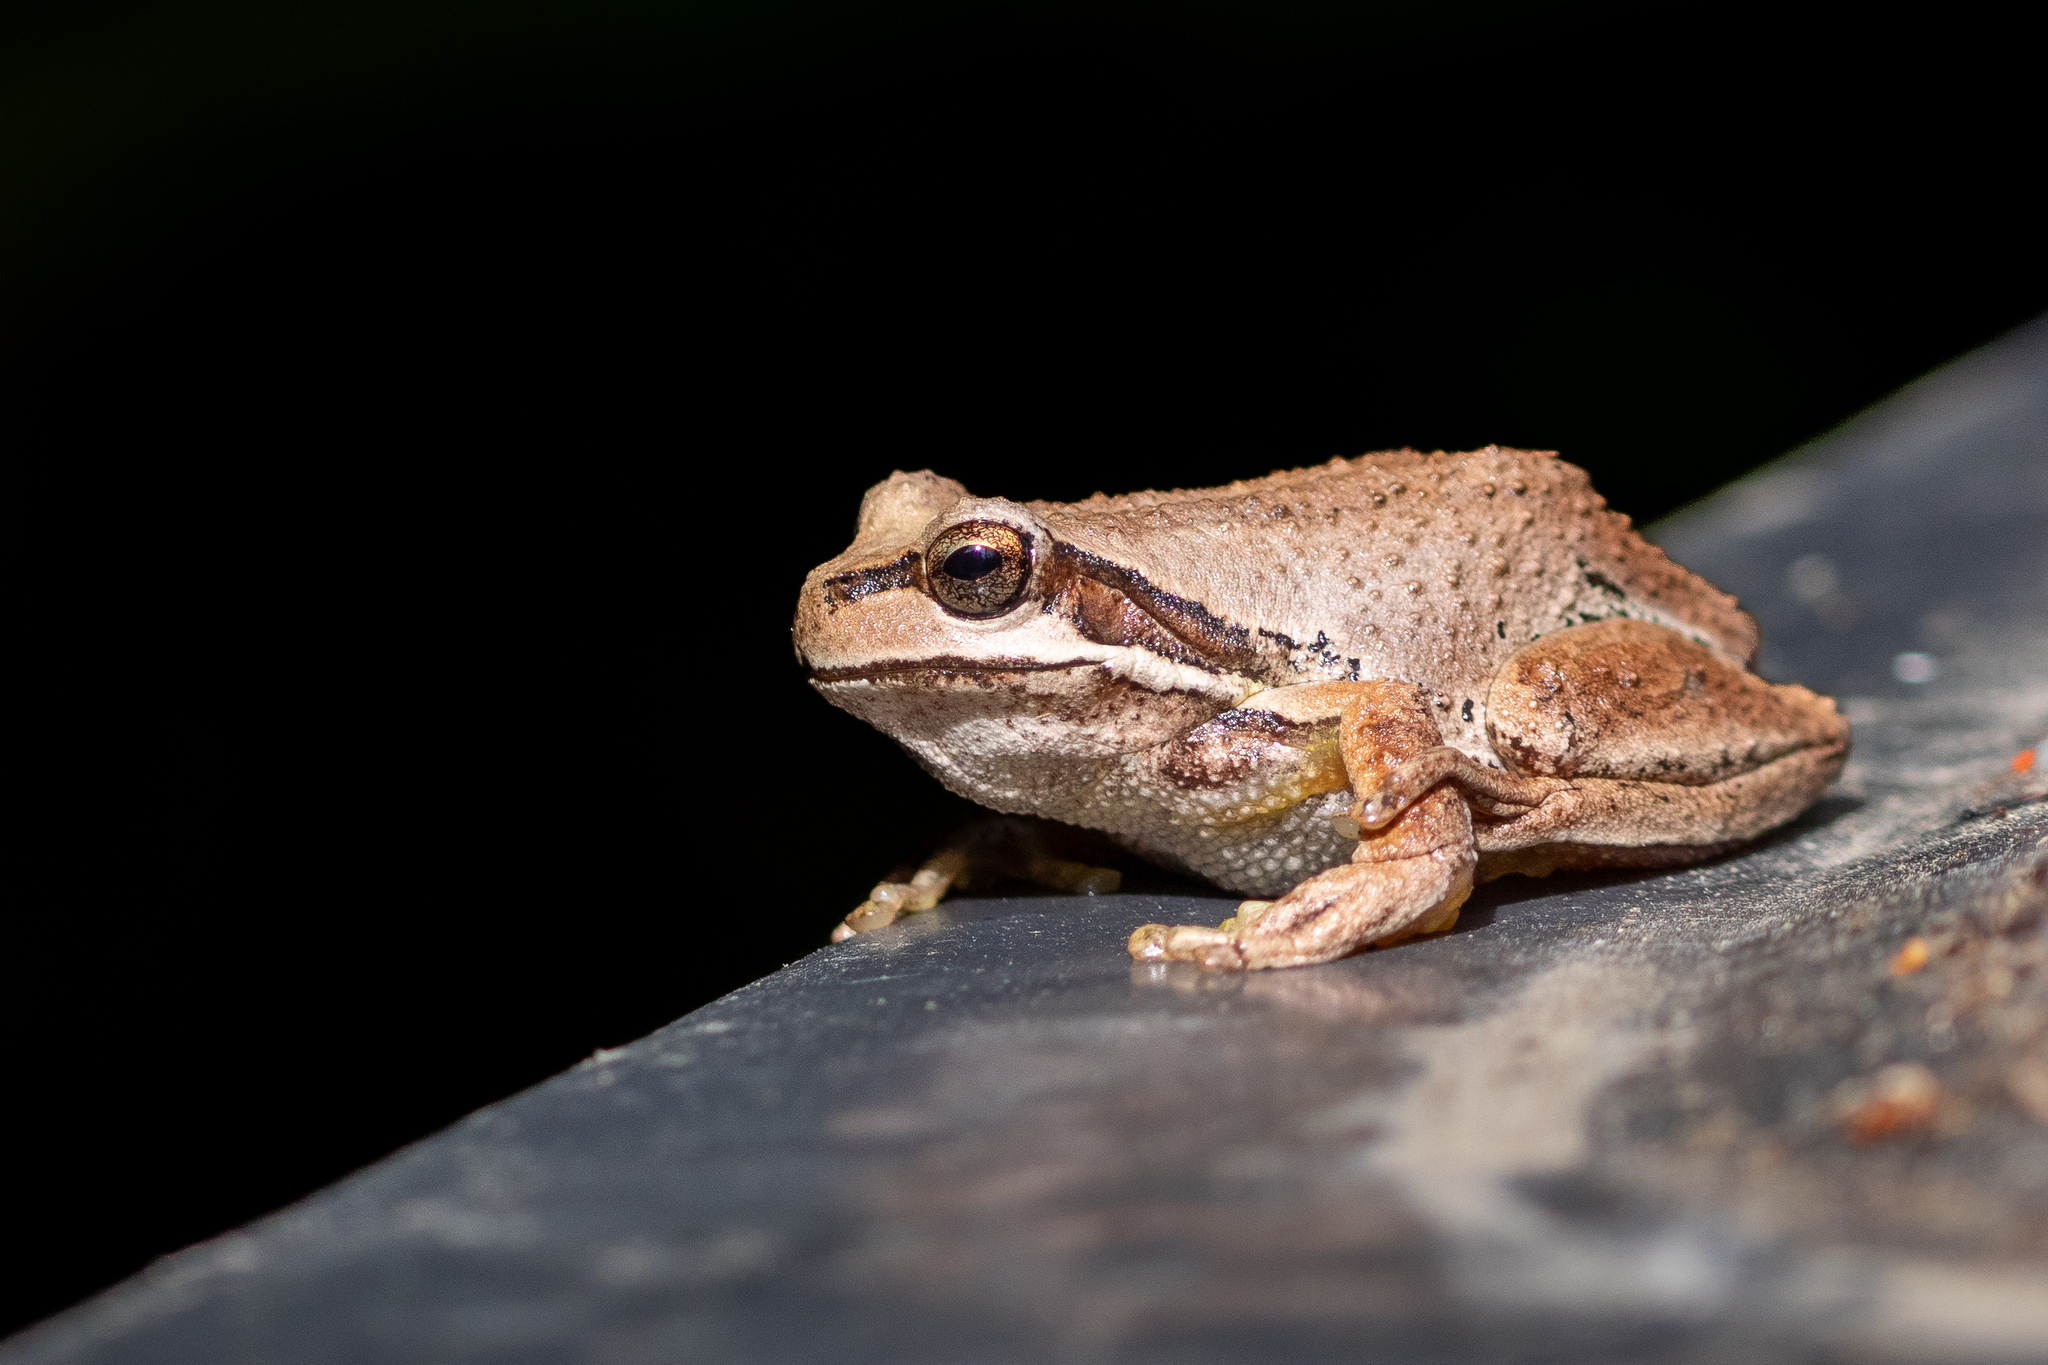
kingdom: Animalia
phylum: Chordata
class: Amphibia
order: Anura
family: Pelodryadidae
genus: Litoria
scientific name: Litoria ewingii
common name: Southern brown tree frog
